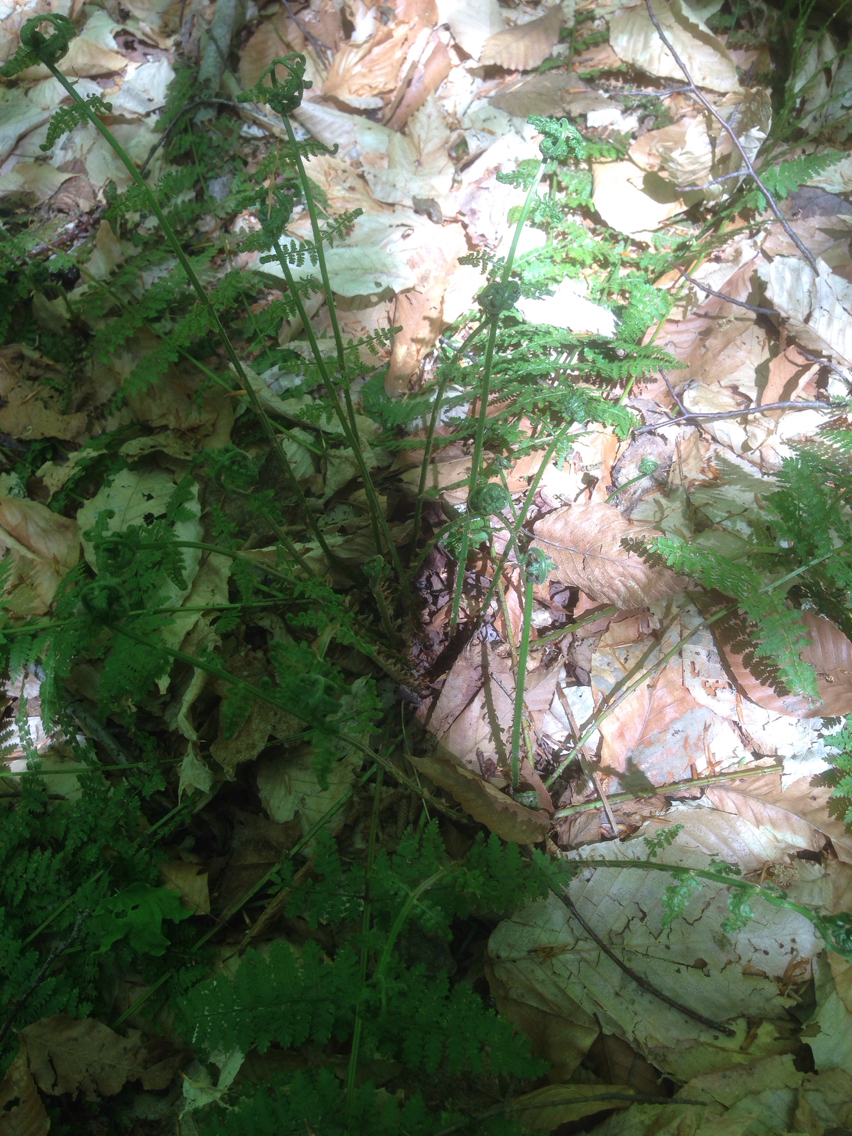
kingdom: Plantae
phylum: Tracheophyta
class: Polypodiopsida
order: Polypodiales
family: Dryopteridaceae
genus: Dryopteris
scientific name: Dryopteris intermedia
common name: Evergreen wood fern
